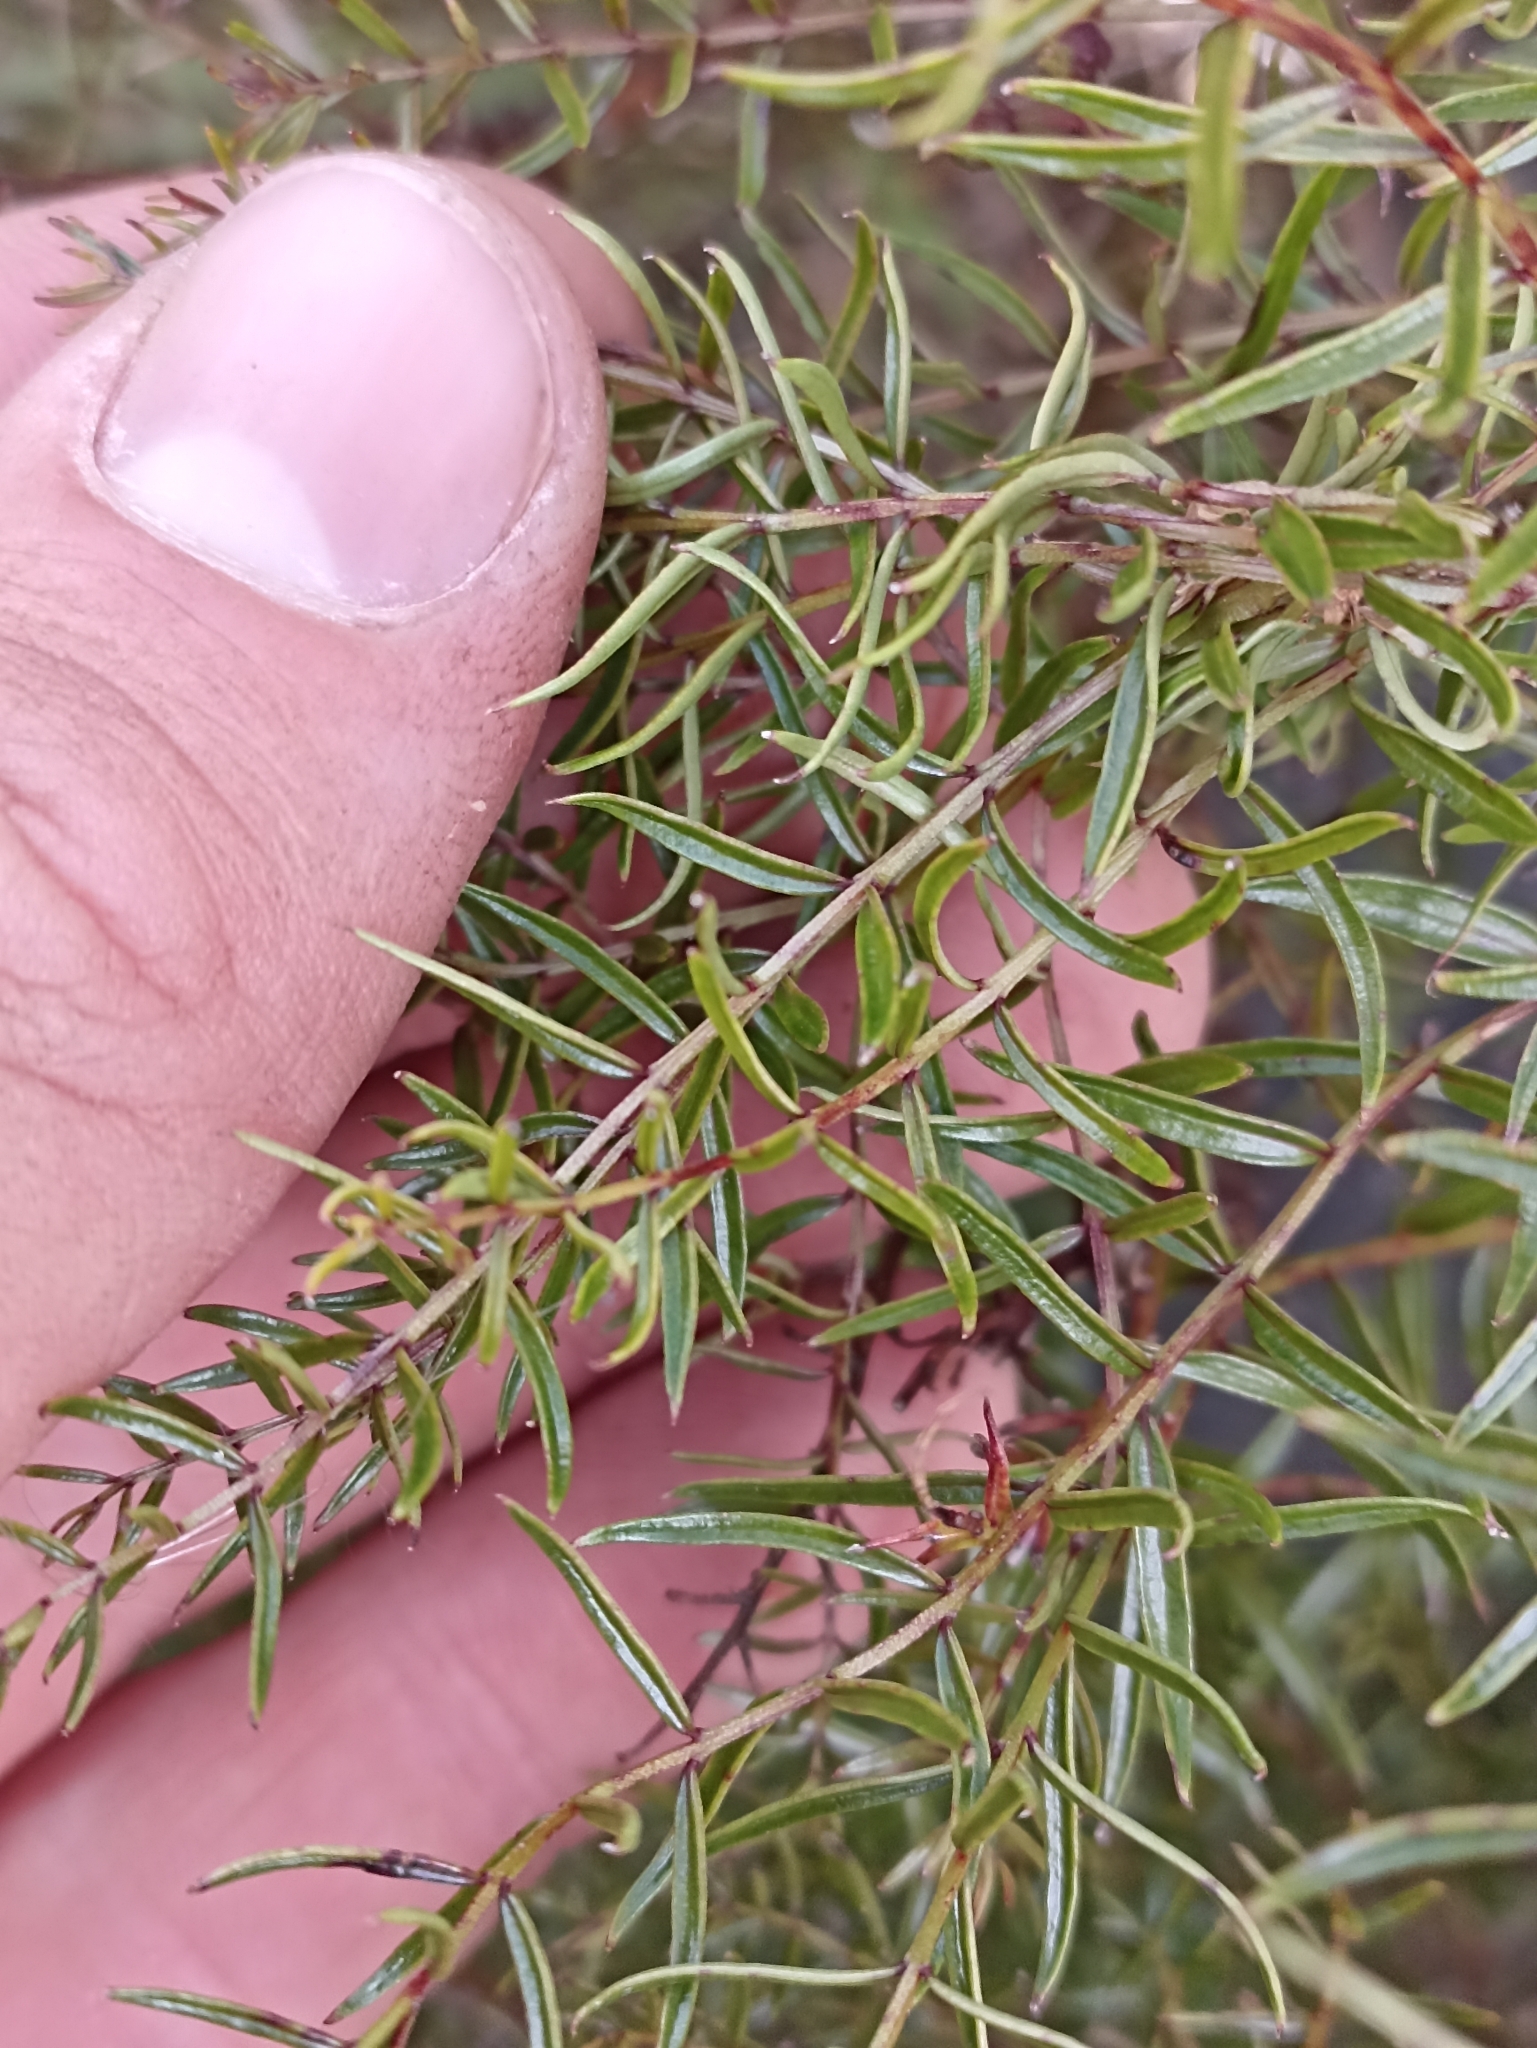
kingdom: Plantae
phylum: Tracheophyta
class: Magnoliopsida
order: Cucurbitales
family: Coriariaceae
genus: Coriaria
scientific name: Coriaria angustissima
